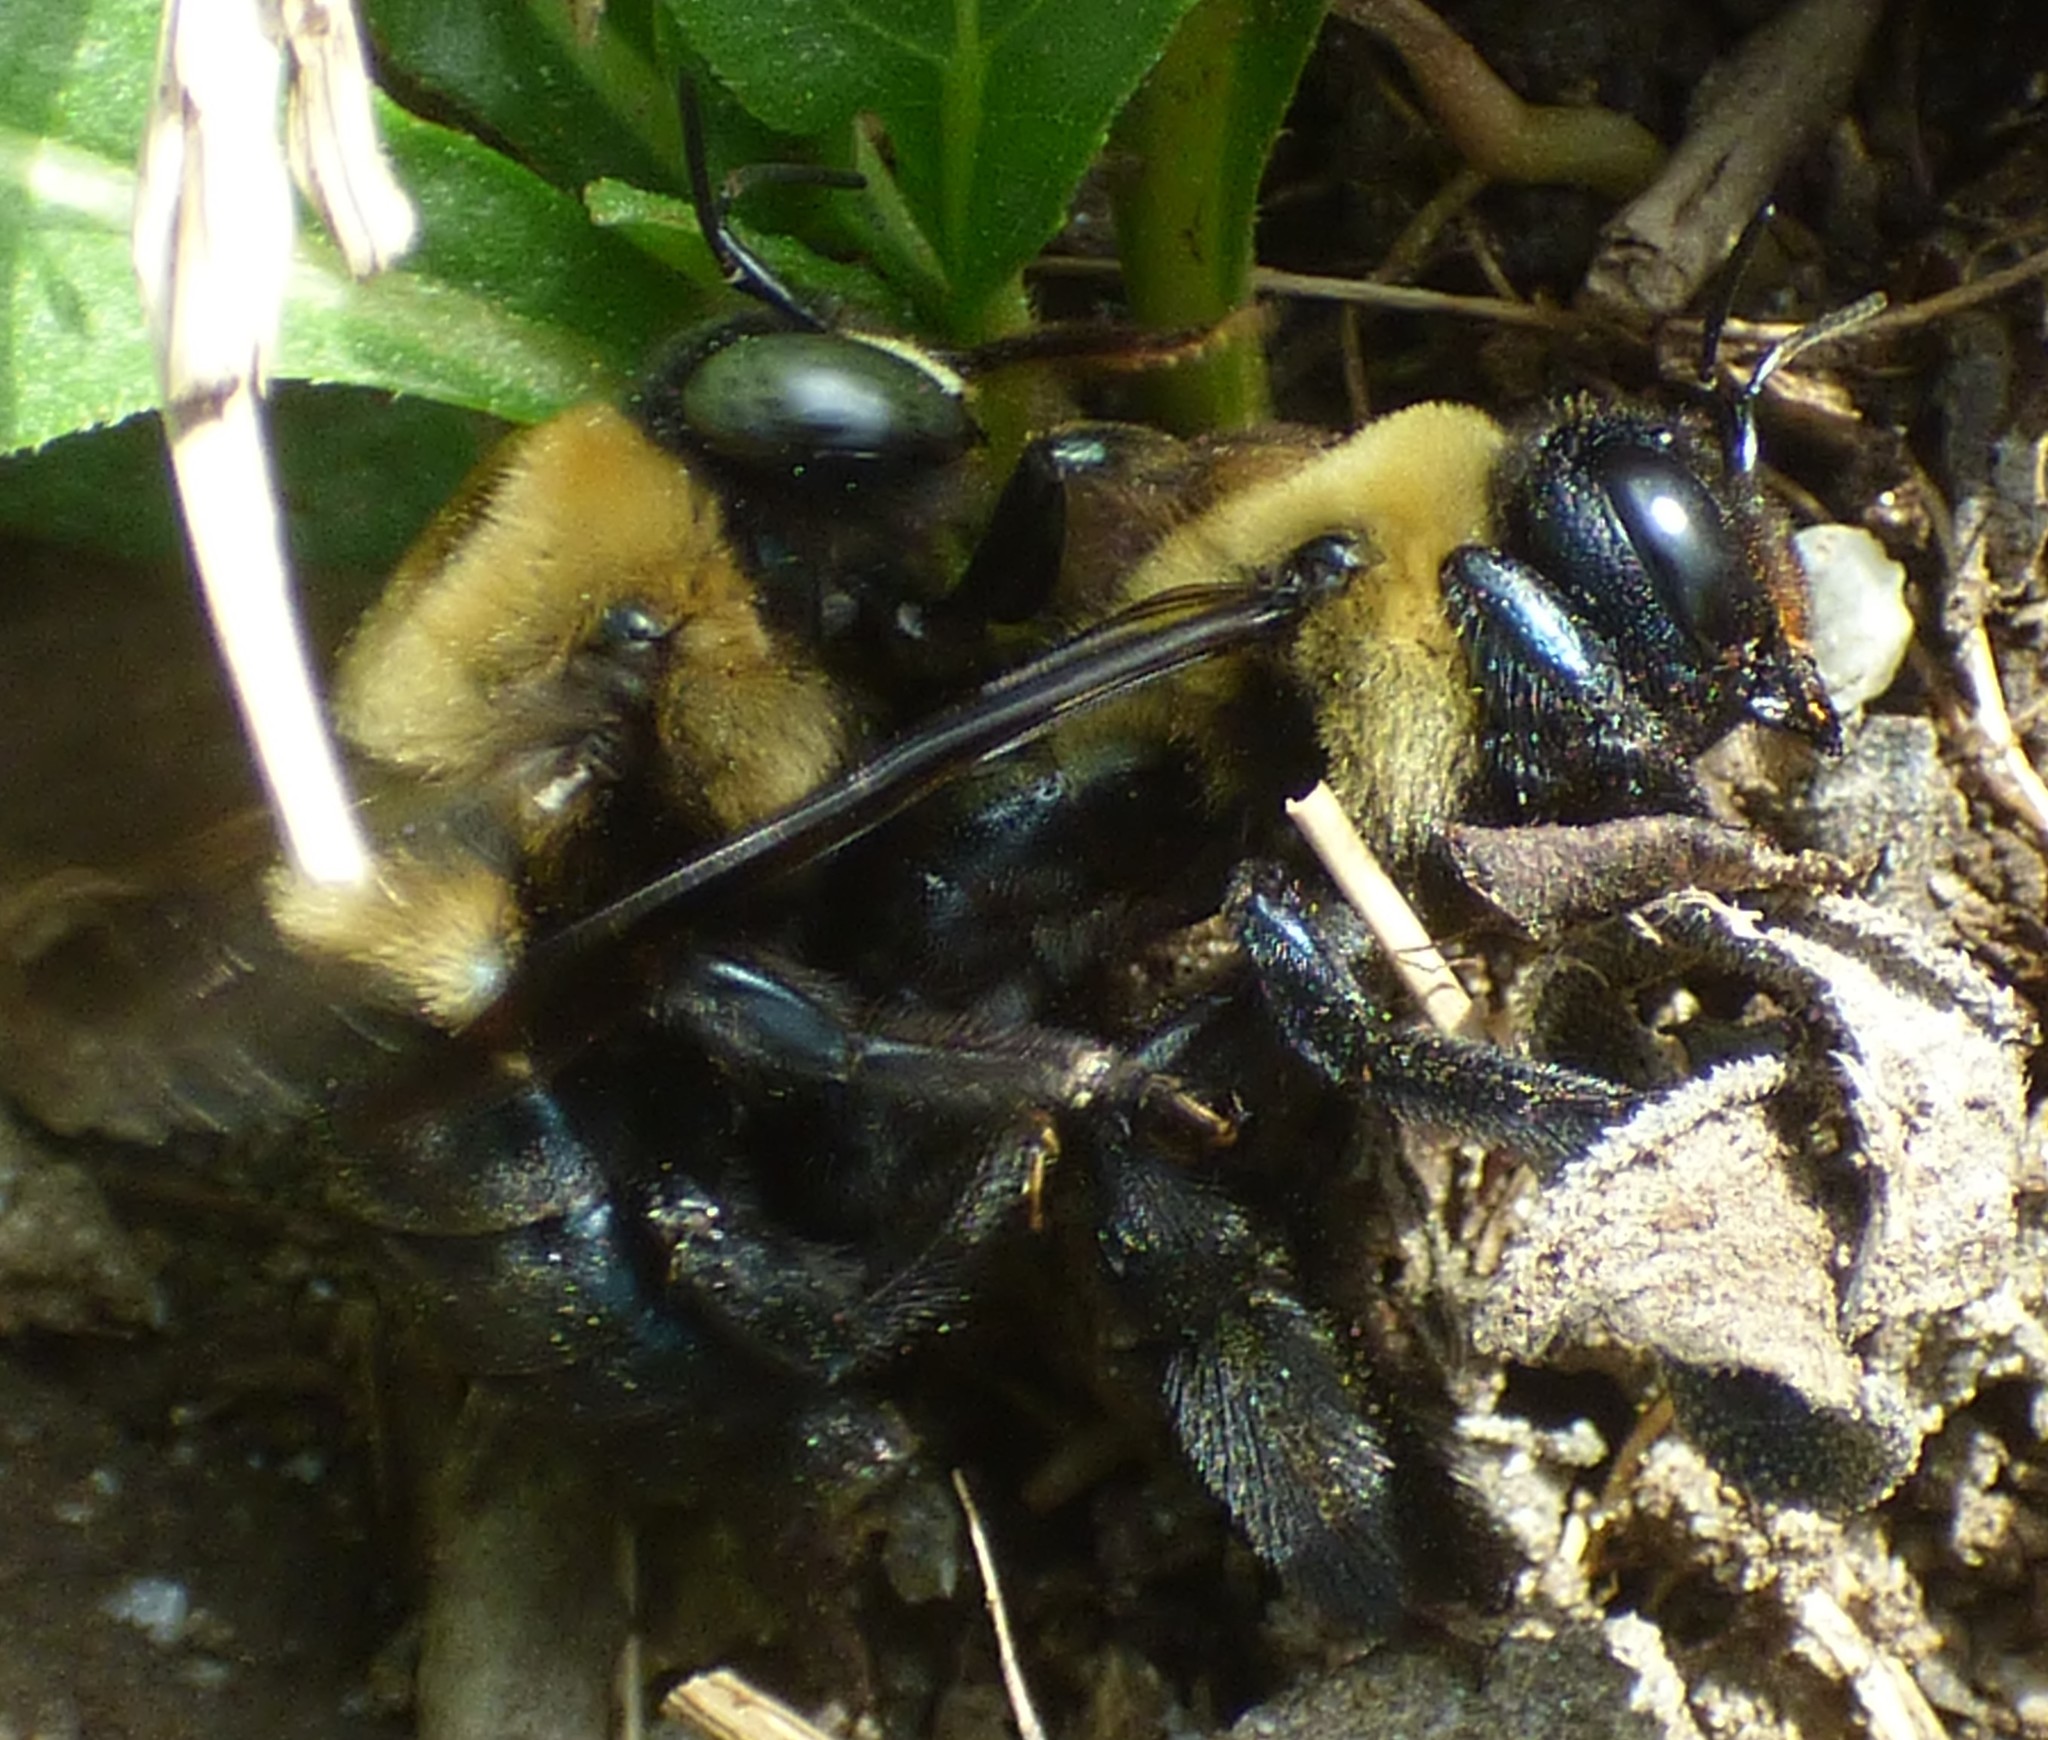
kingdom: Animalia
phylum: Arthropoda
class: Insecta
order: Hymenoptera
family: Apidae
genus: Xylocopa
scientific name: Xylocopa virginica
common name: Carpenter bee
